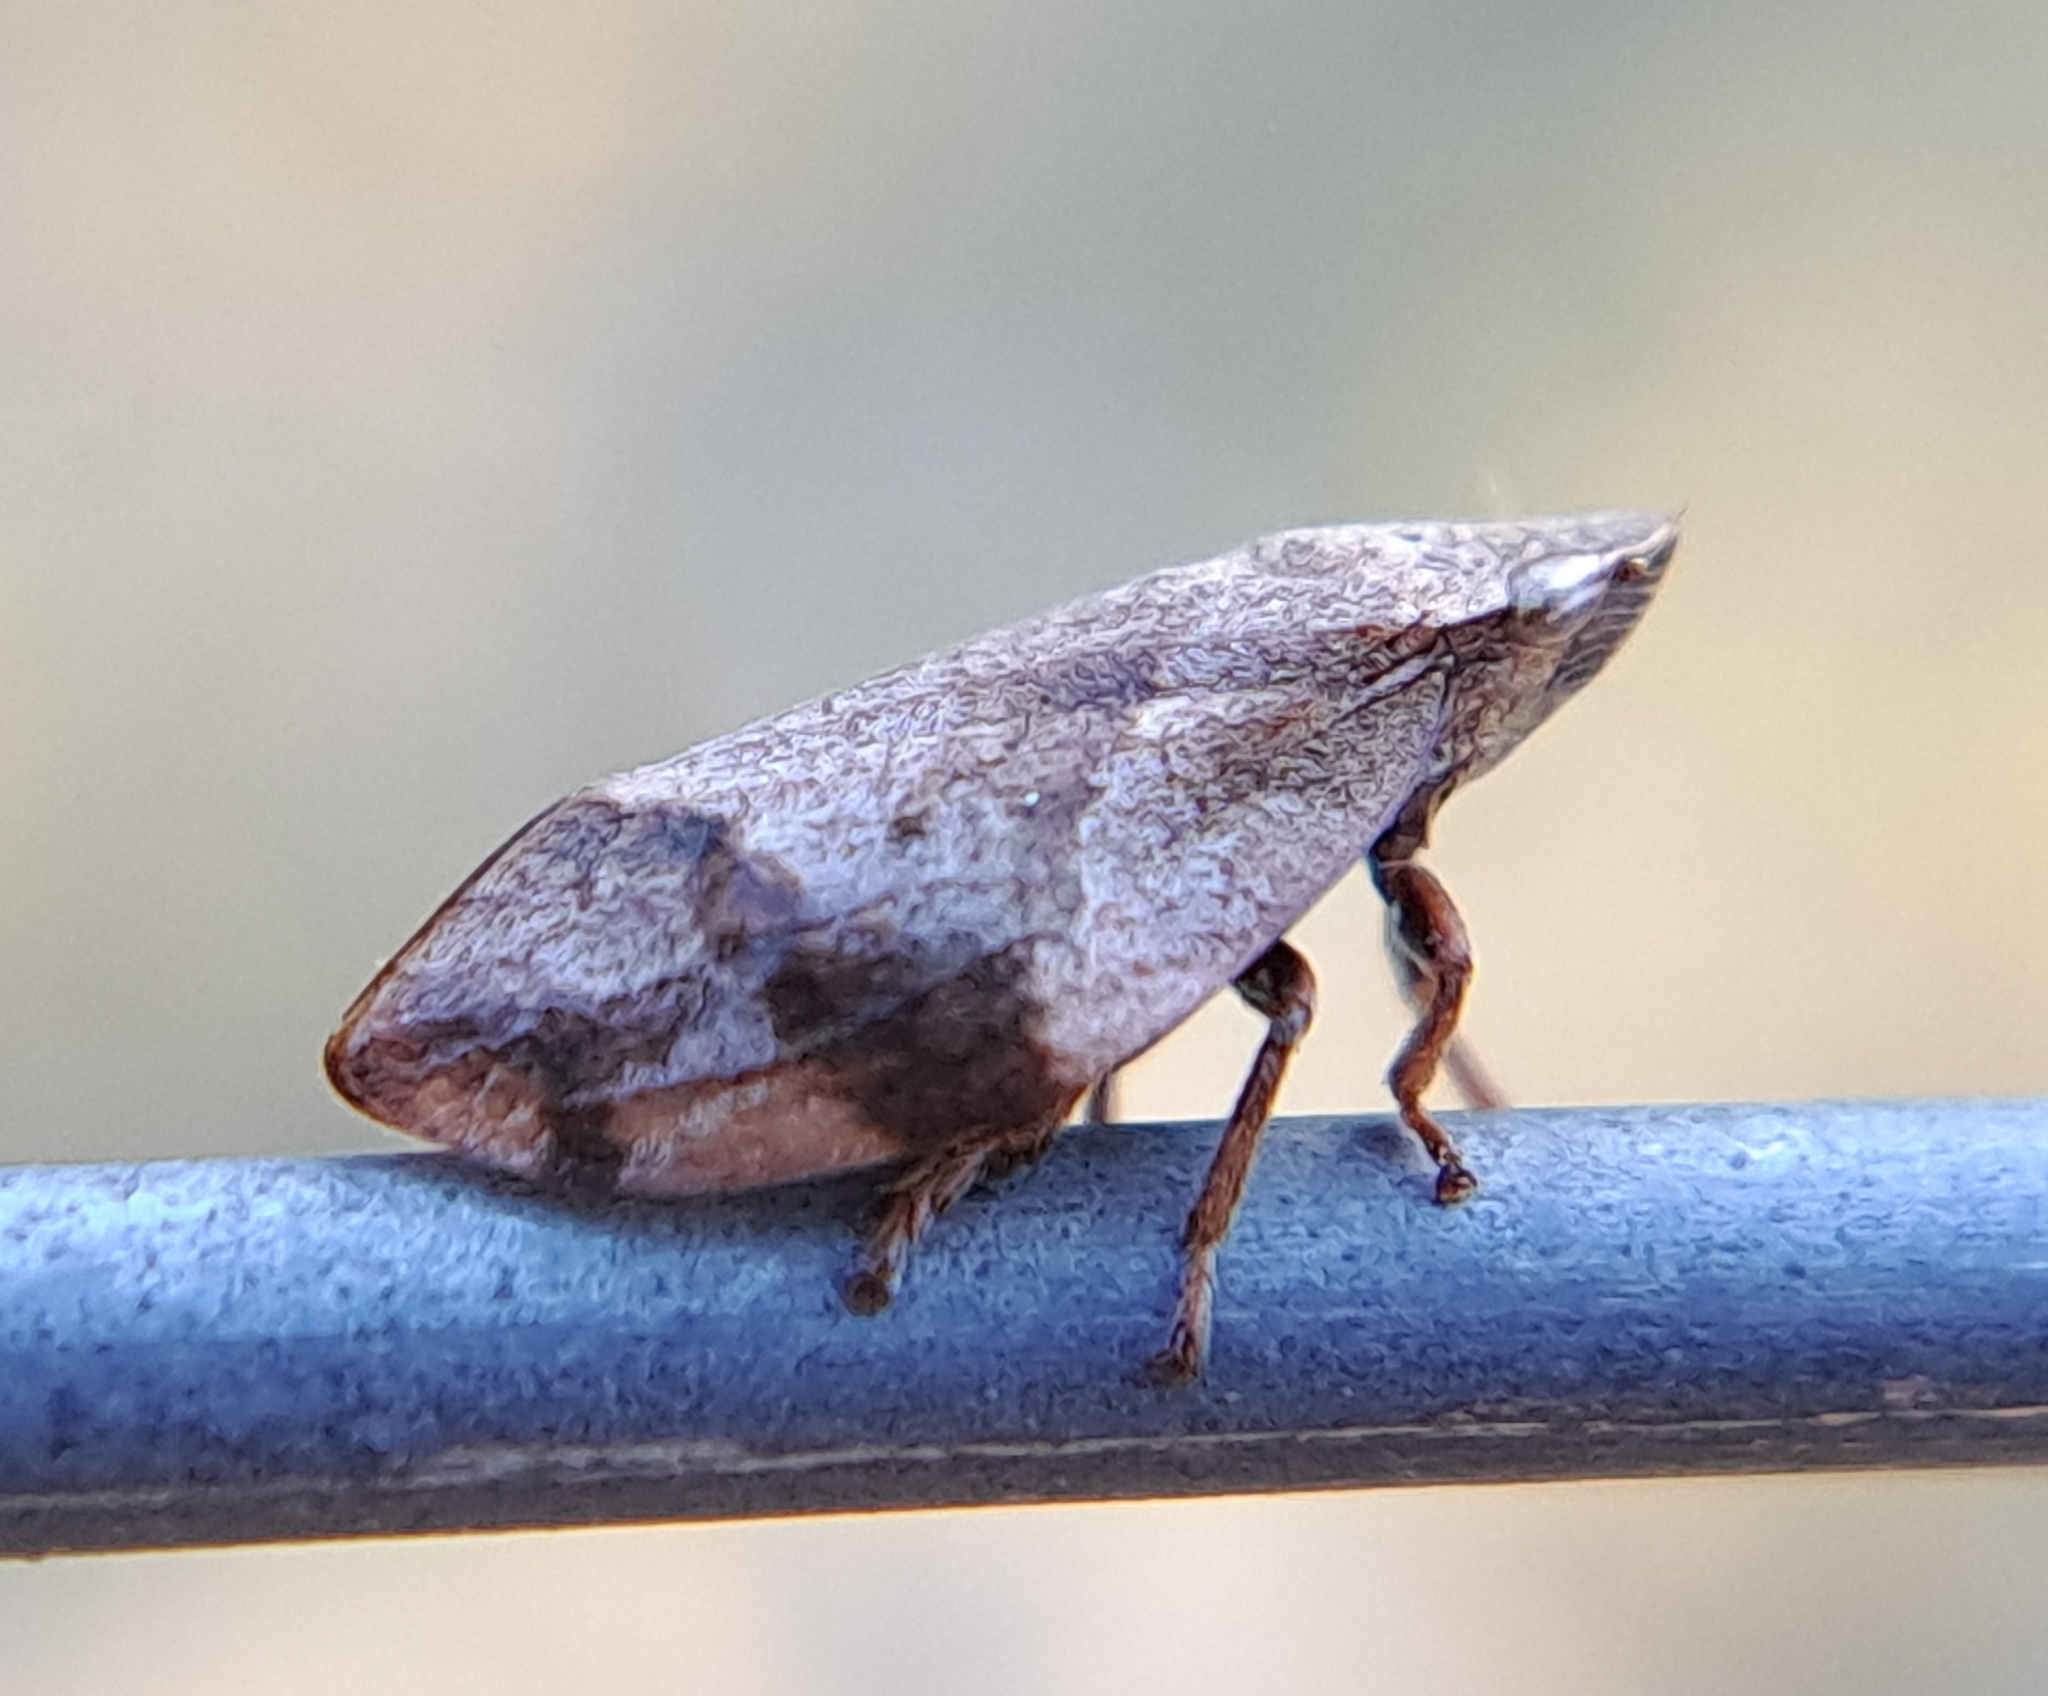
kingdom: Animalia
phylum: Arthropoda
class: Insecta
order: Hemiptera
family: Aphrophoridae
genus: Lepyronia
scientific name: Lepyronia quadrangularis
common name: Diamond-backed spittlebug
